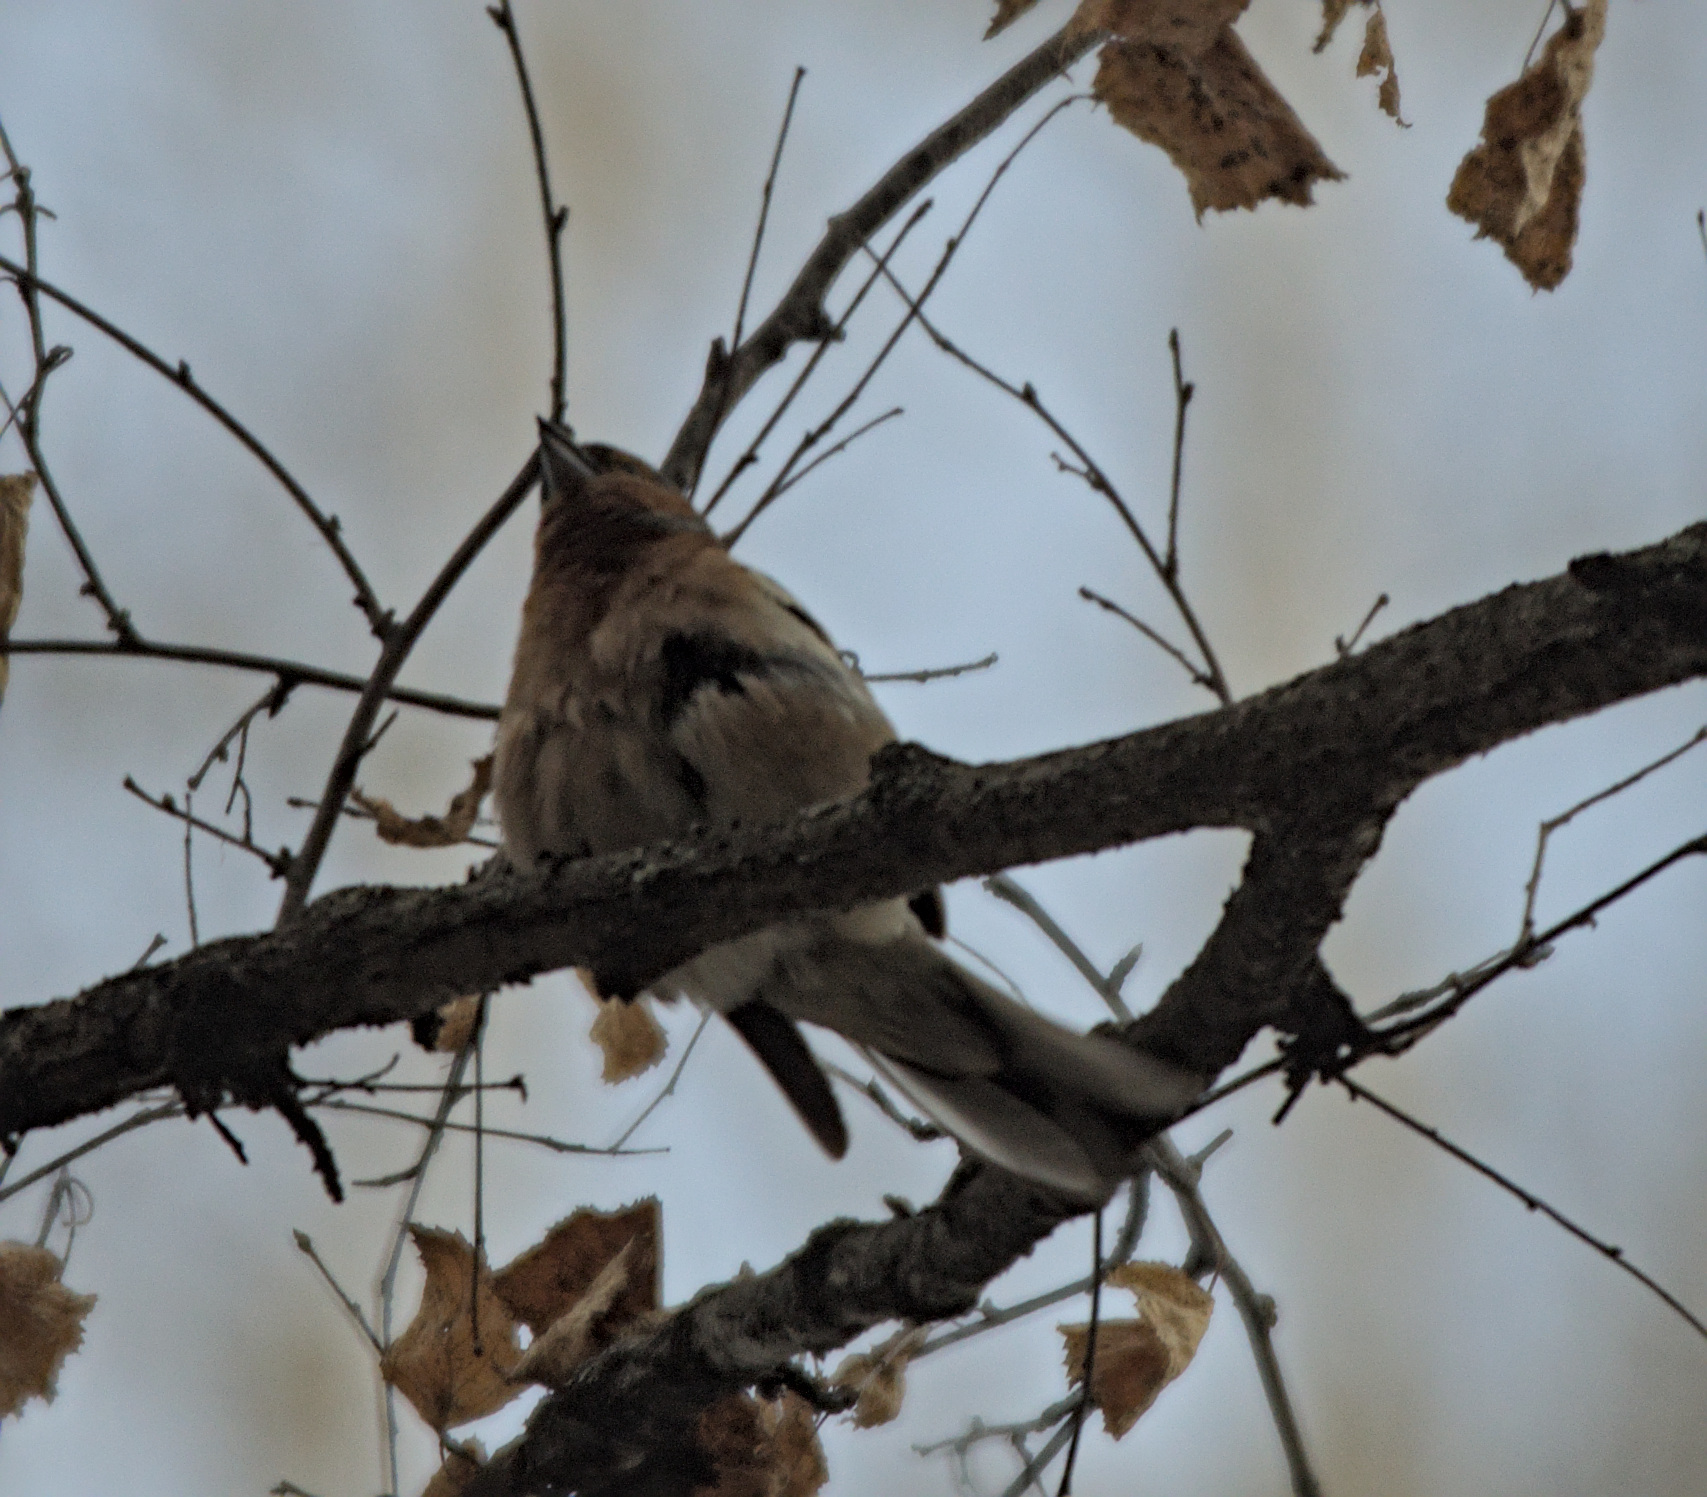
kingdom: Animalia
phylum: Chordata
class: Aves
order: Passeriformes
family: Fringillidae
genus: Fringilla
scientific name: Fringilla coelebs
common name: Common chaffinch
